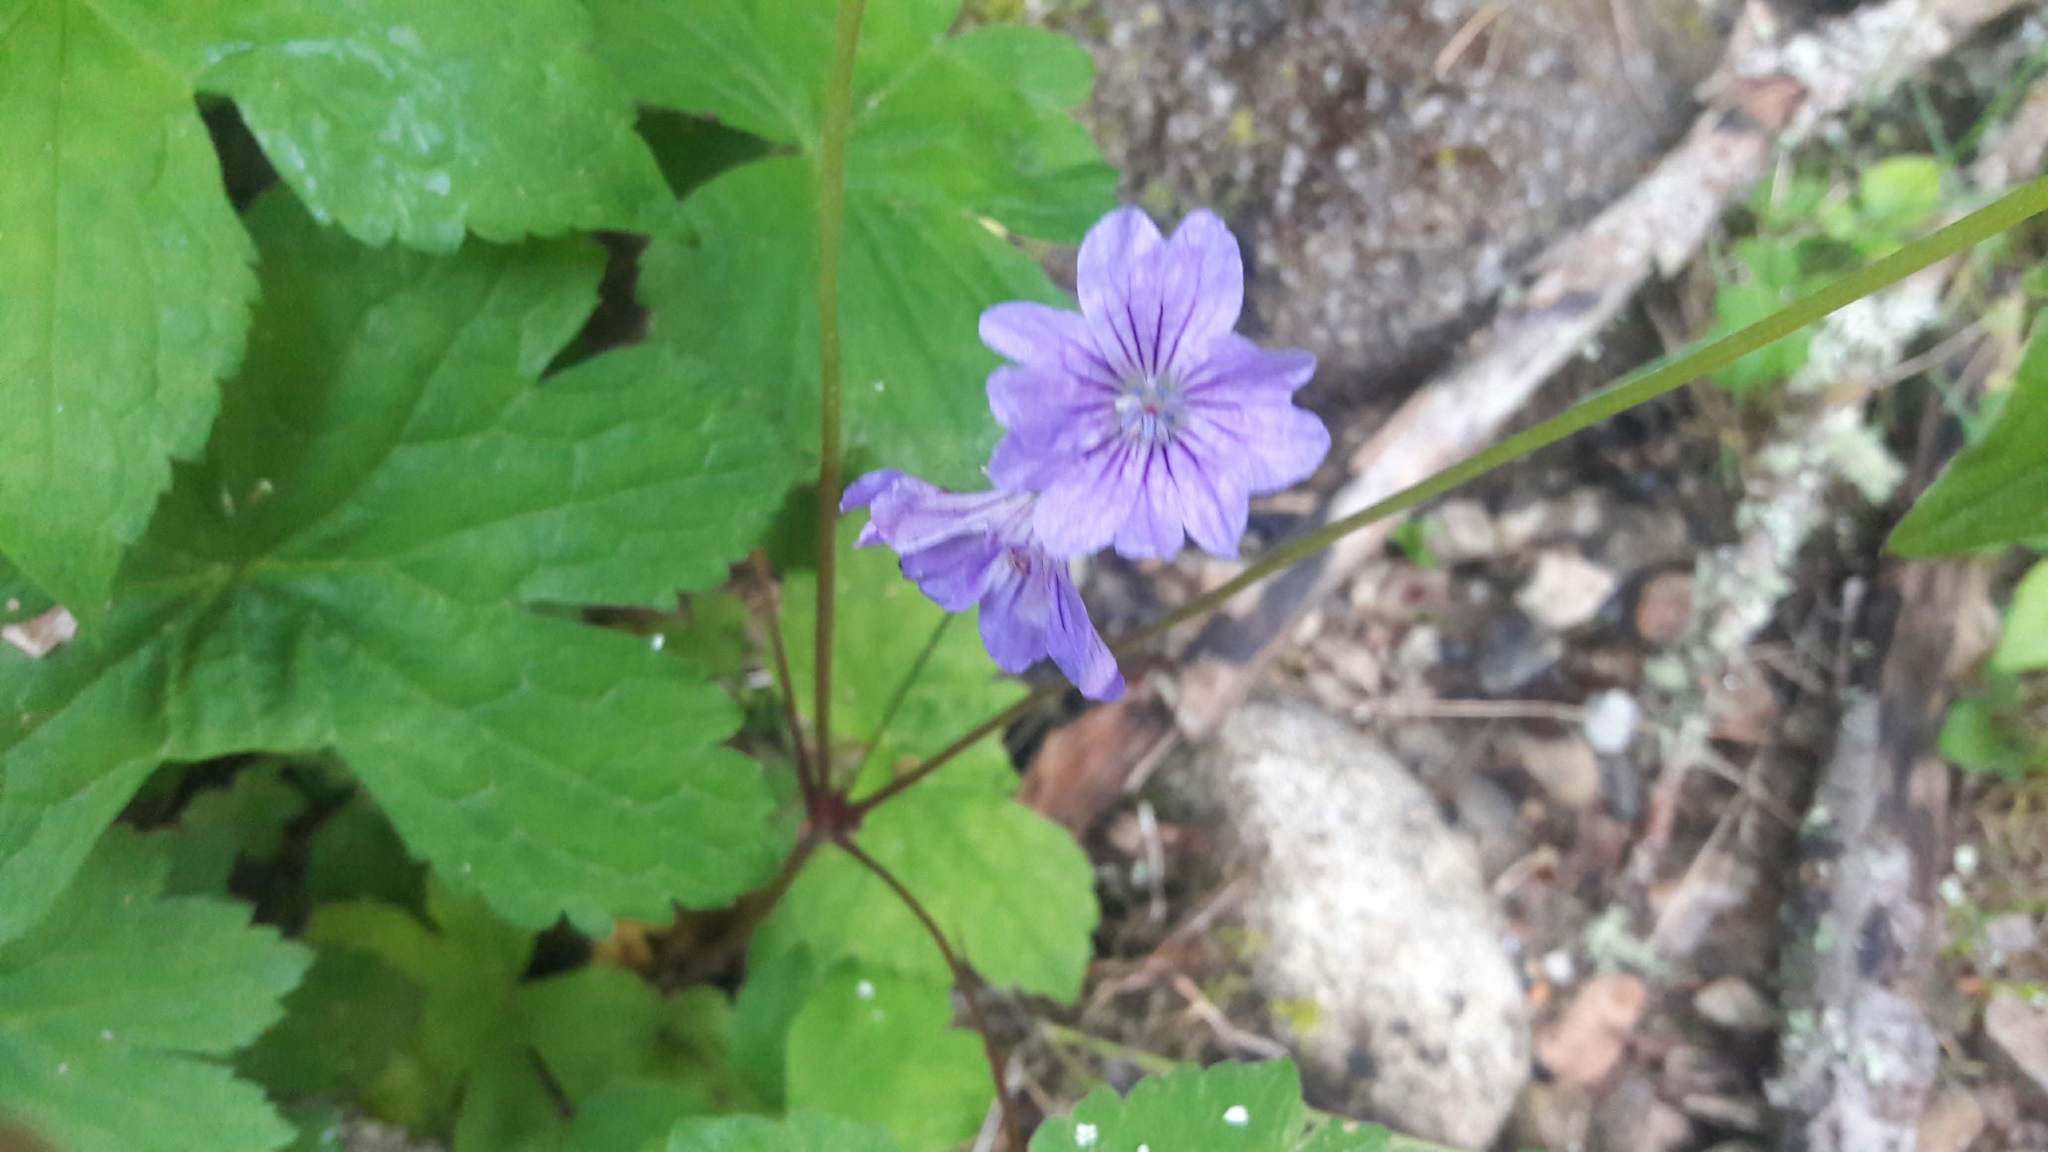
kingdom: Plantae
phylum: Tracheophyta
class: Magnoliopsida
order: Geraniales
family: Geraniaceae
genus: Geranium
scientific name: Geranium nodosum
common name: Knotted crane's-bill
